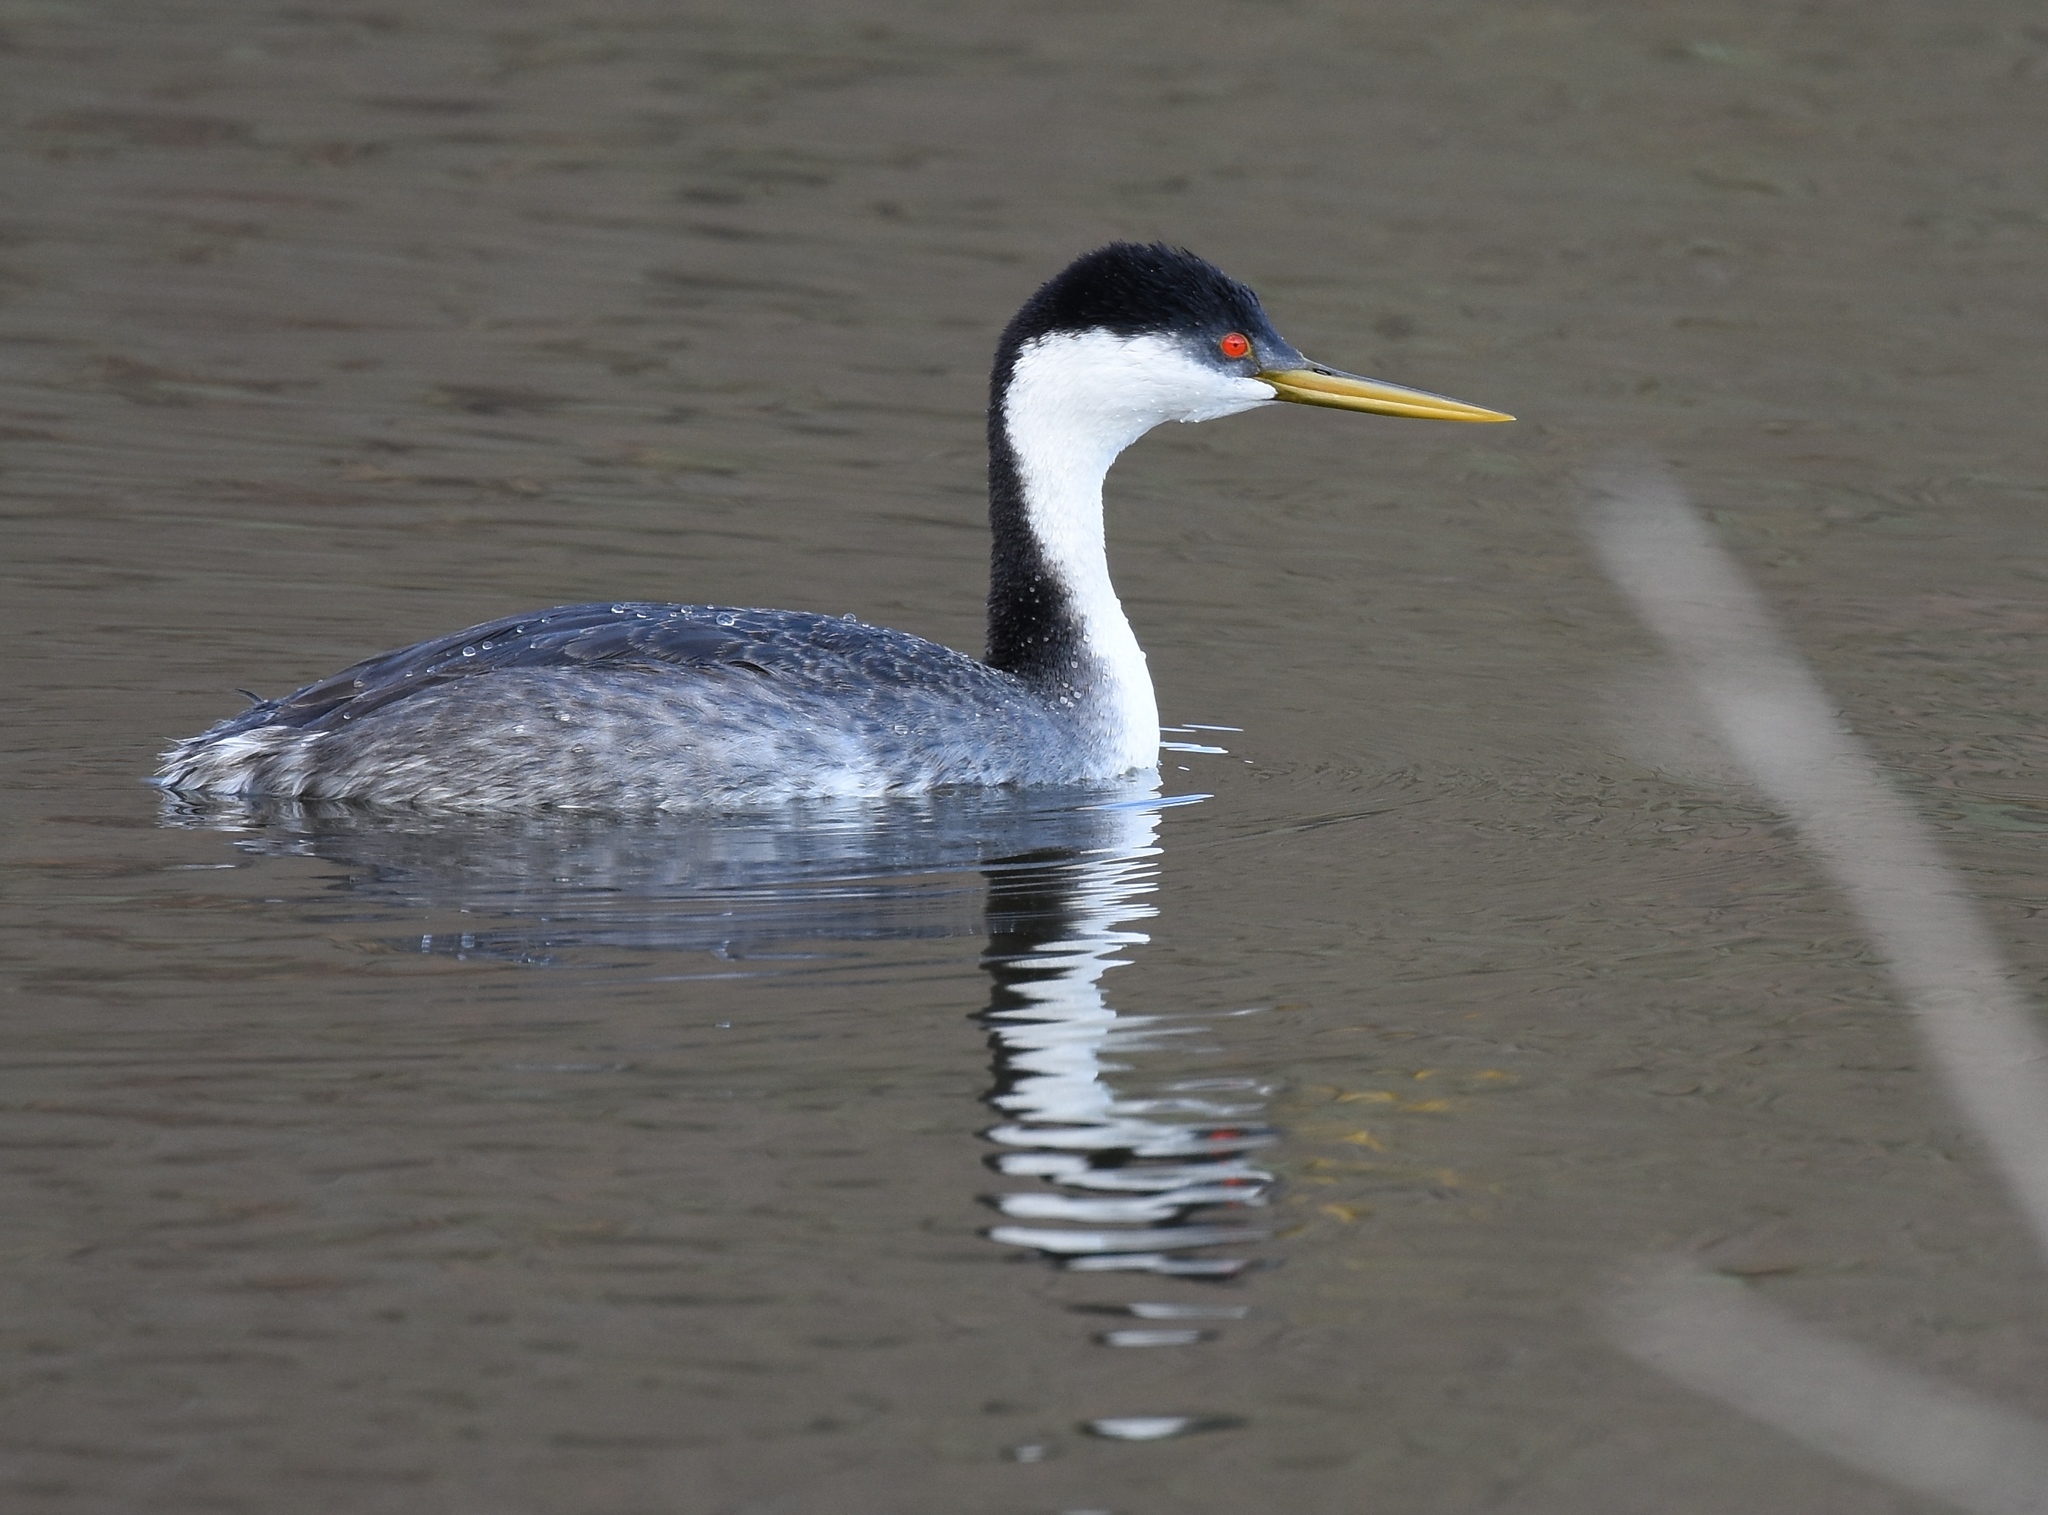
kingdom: Animalia
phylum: Chordata
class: Aves
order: Podicipediformes
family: Podicipedidae
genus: Aechmophorus
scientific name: Aechmophorus occidentalis
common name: Western grebe
